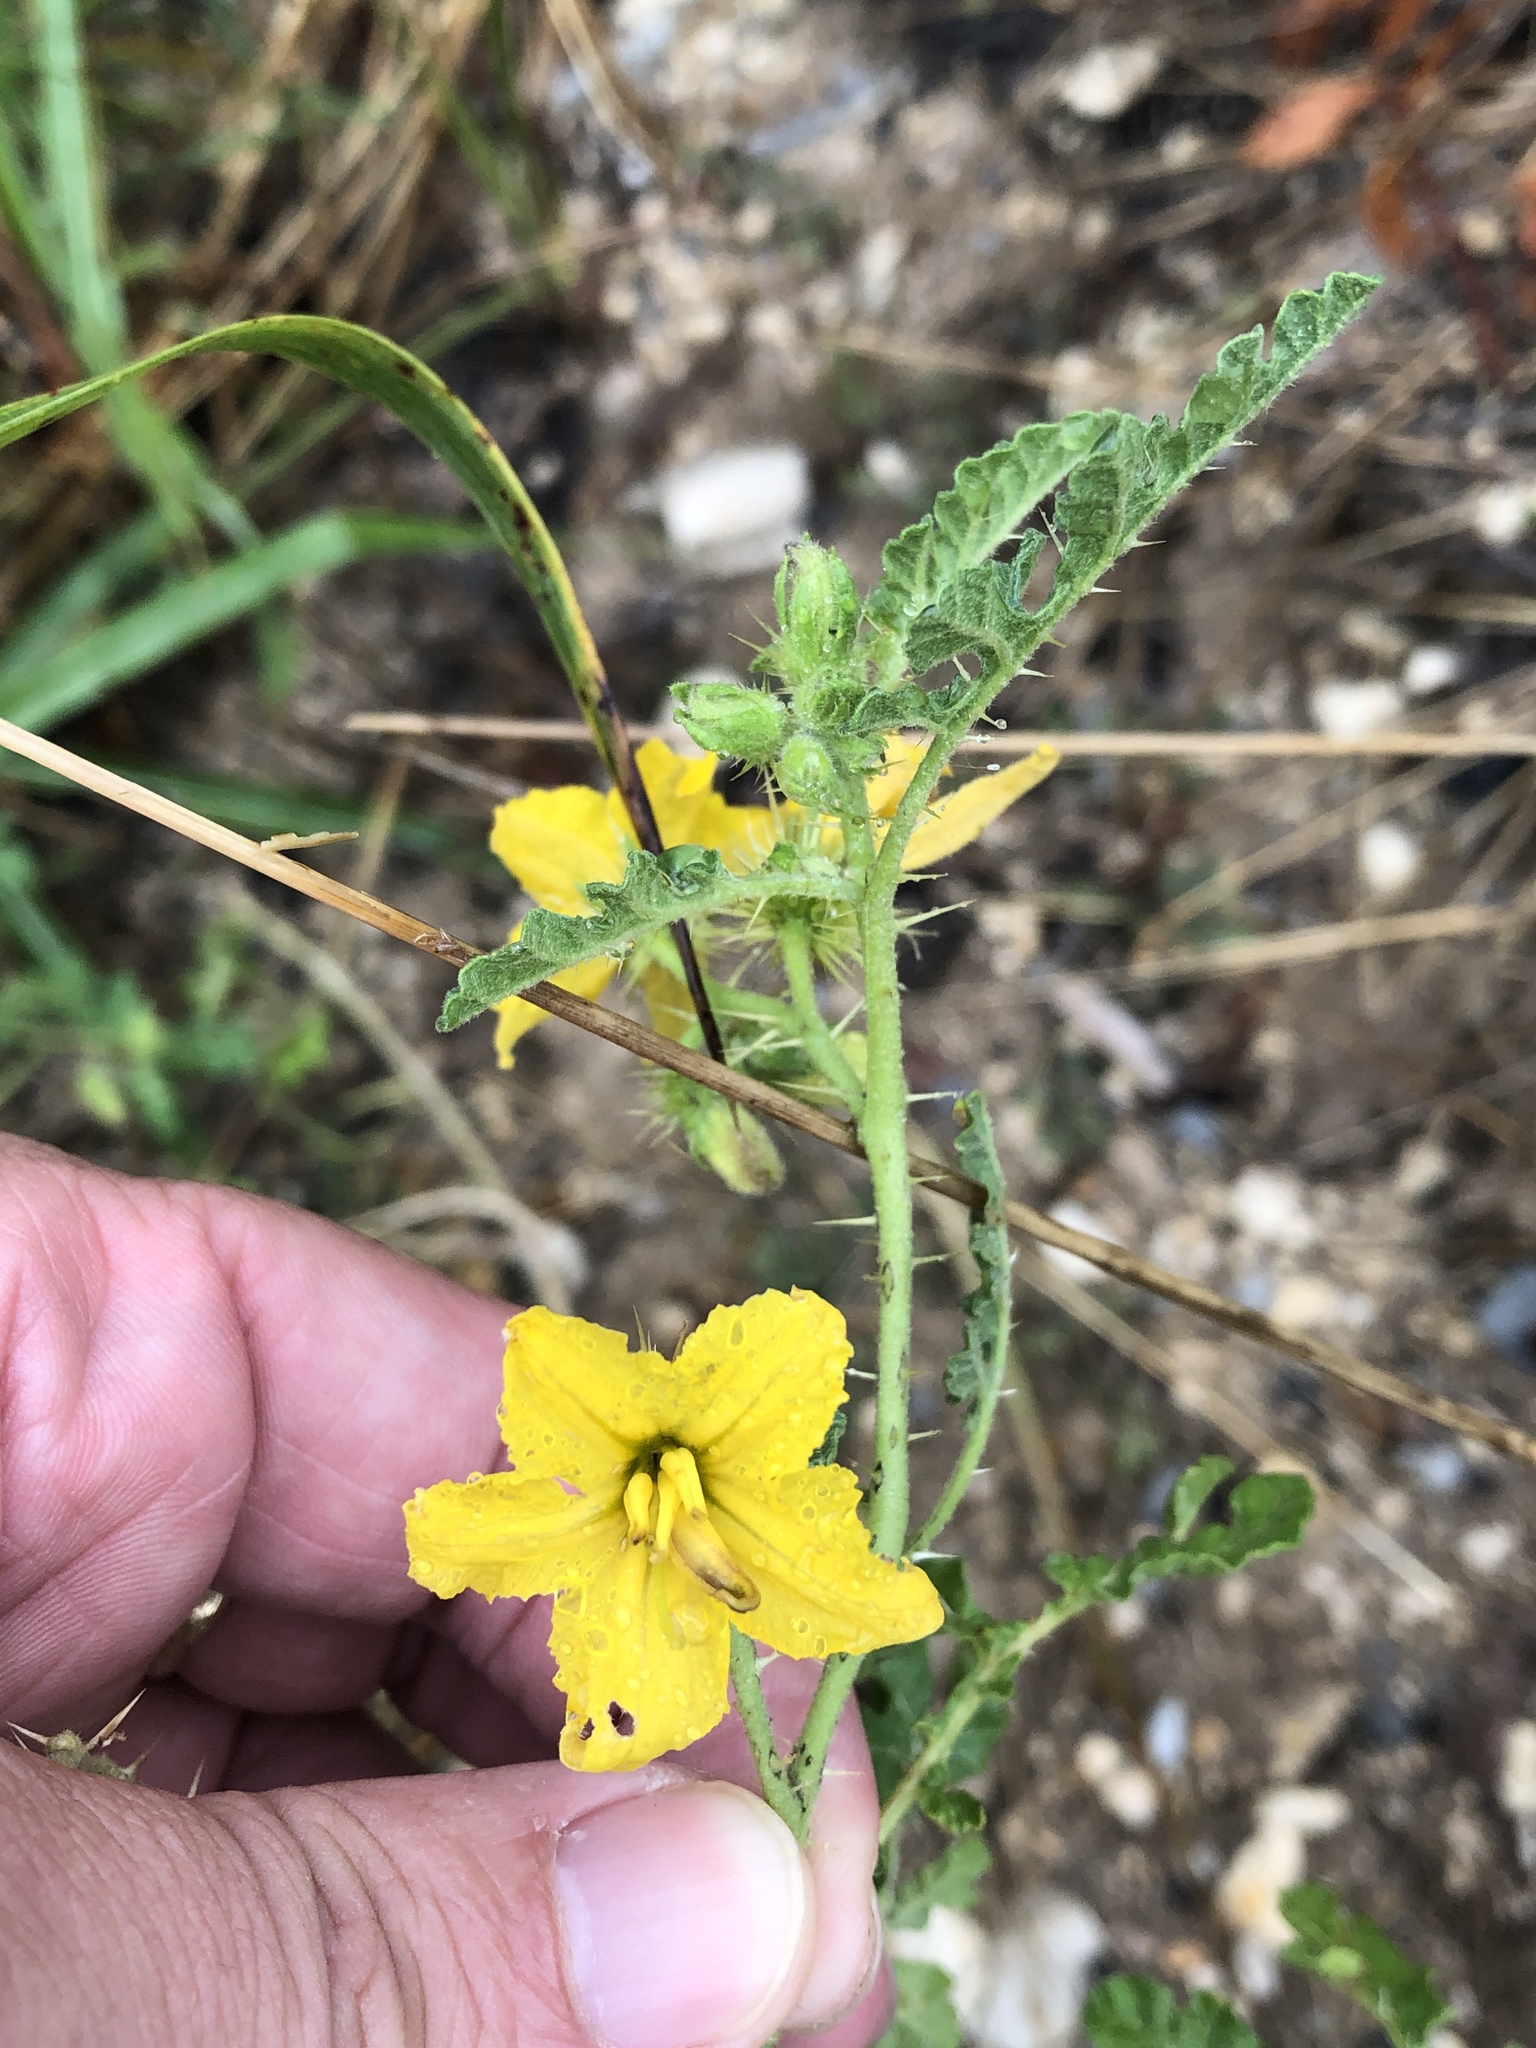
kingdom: Plantae
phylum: Tracheophyta
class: Magnoliopsida
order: Solanales
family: Solanaceae
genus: Solanum
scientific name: Solanum angustifolium
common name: Buffalobur nightshade
